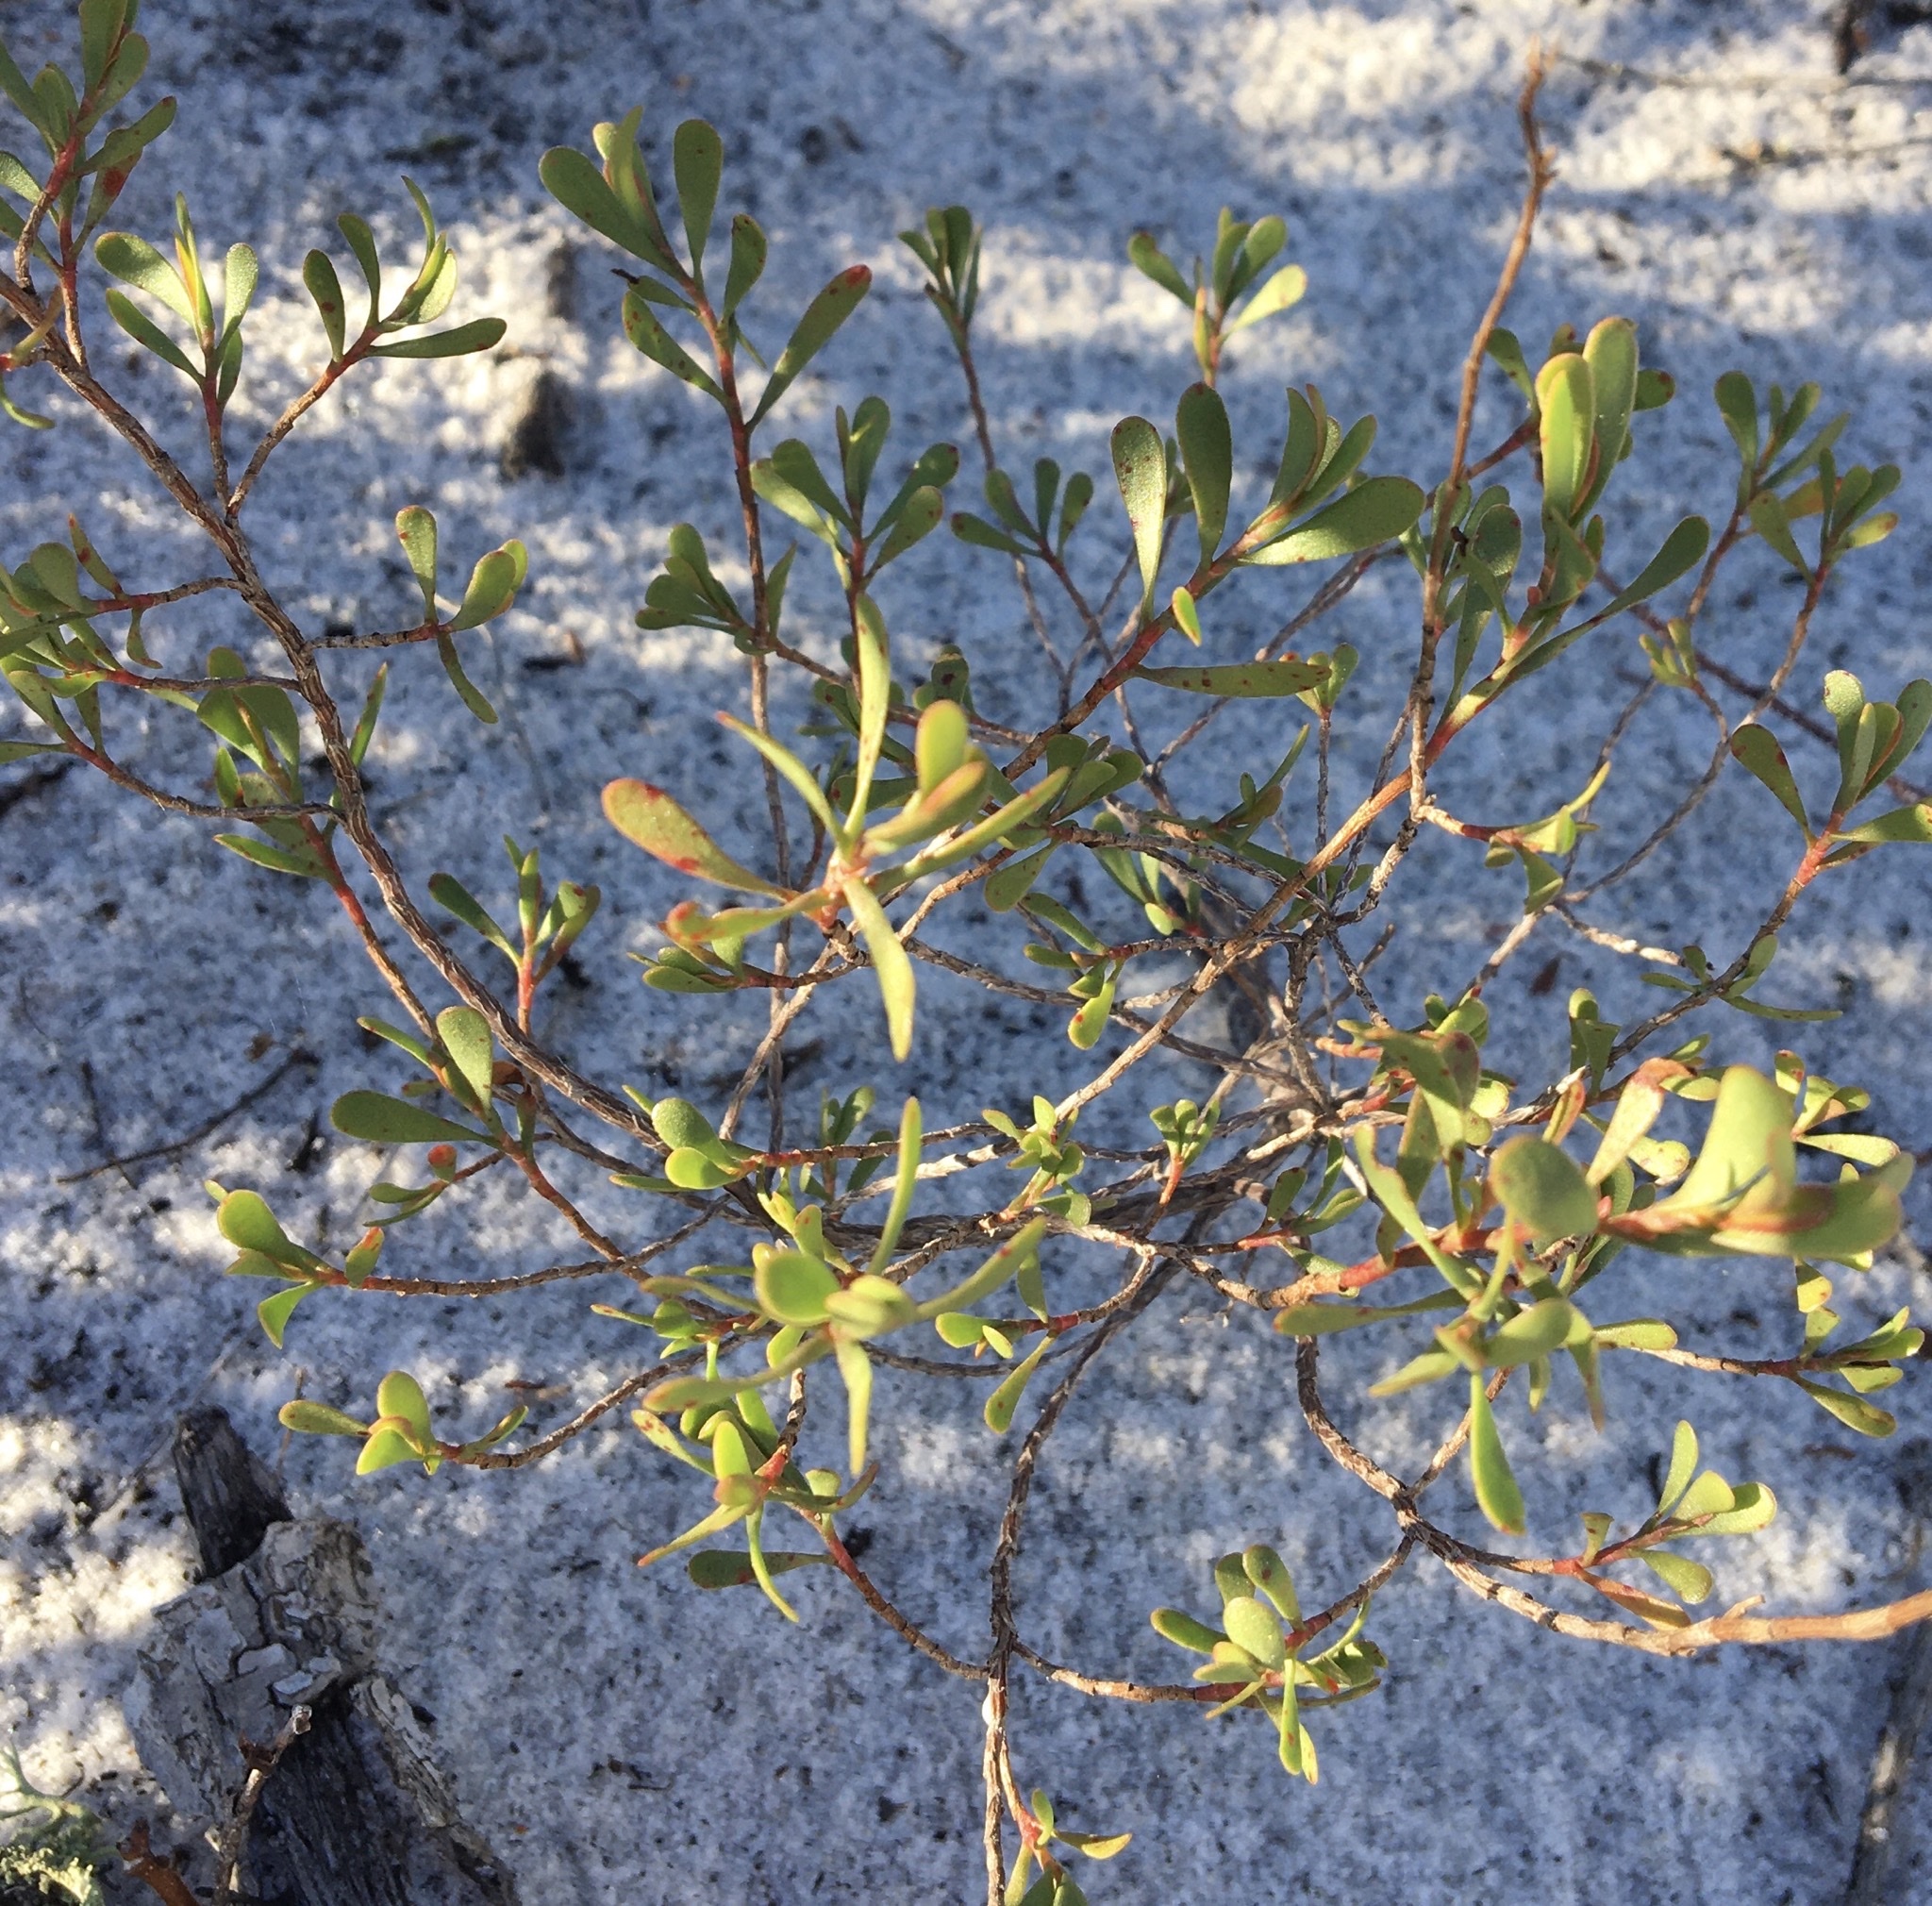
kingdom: Plantae
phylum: Tracheophyta
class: Magnoliopsida
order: Caryophyllales
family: Polygonaceae
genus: Polygonella
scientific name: Polygonella polygama
